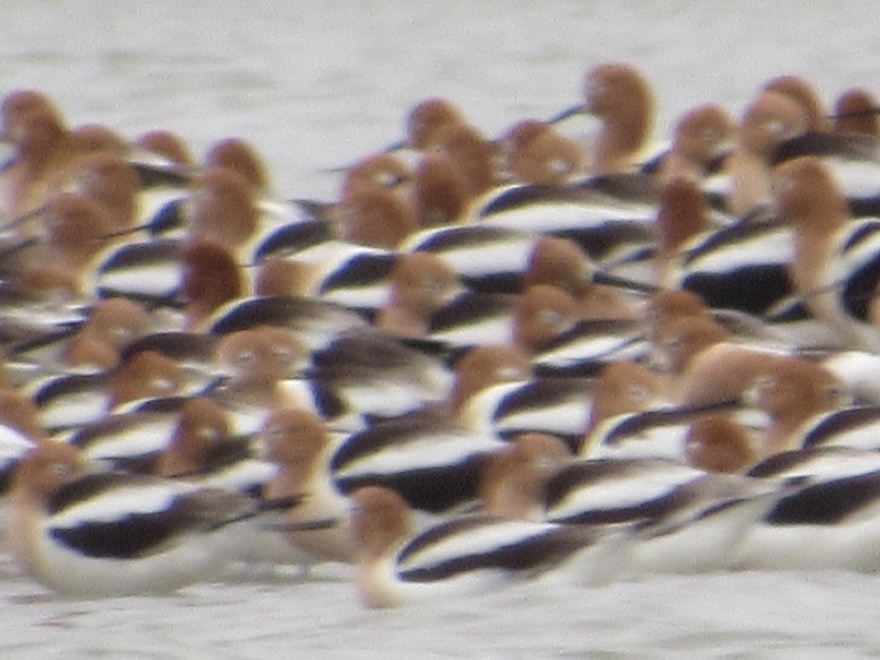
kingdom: Animalia
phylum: Chordata
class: Aves
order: Charadriiformes
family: Recurvirostridae
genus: Recurvirostra
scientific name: Recurvirostra americana
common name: American avocet
